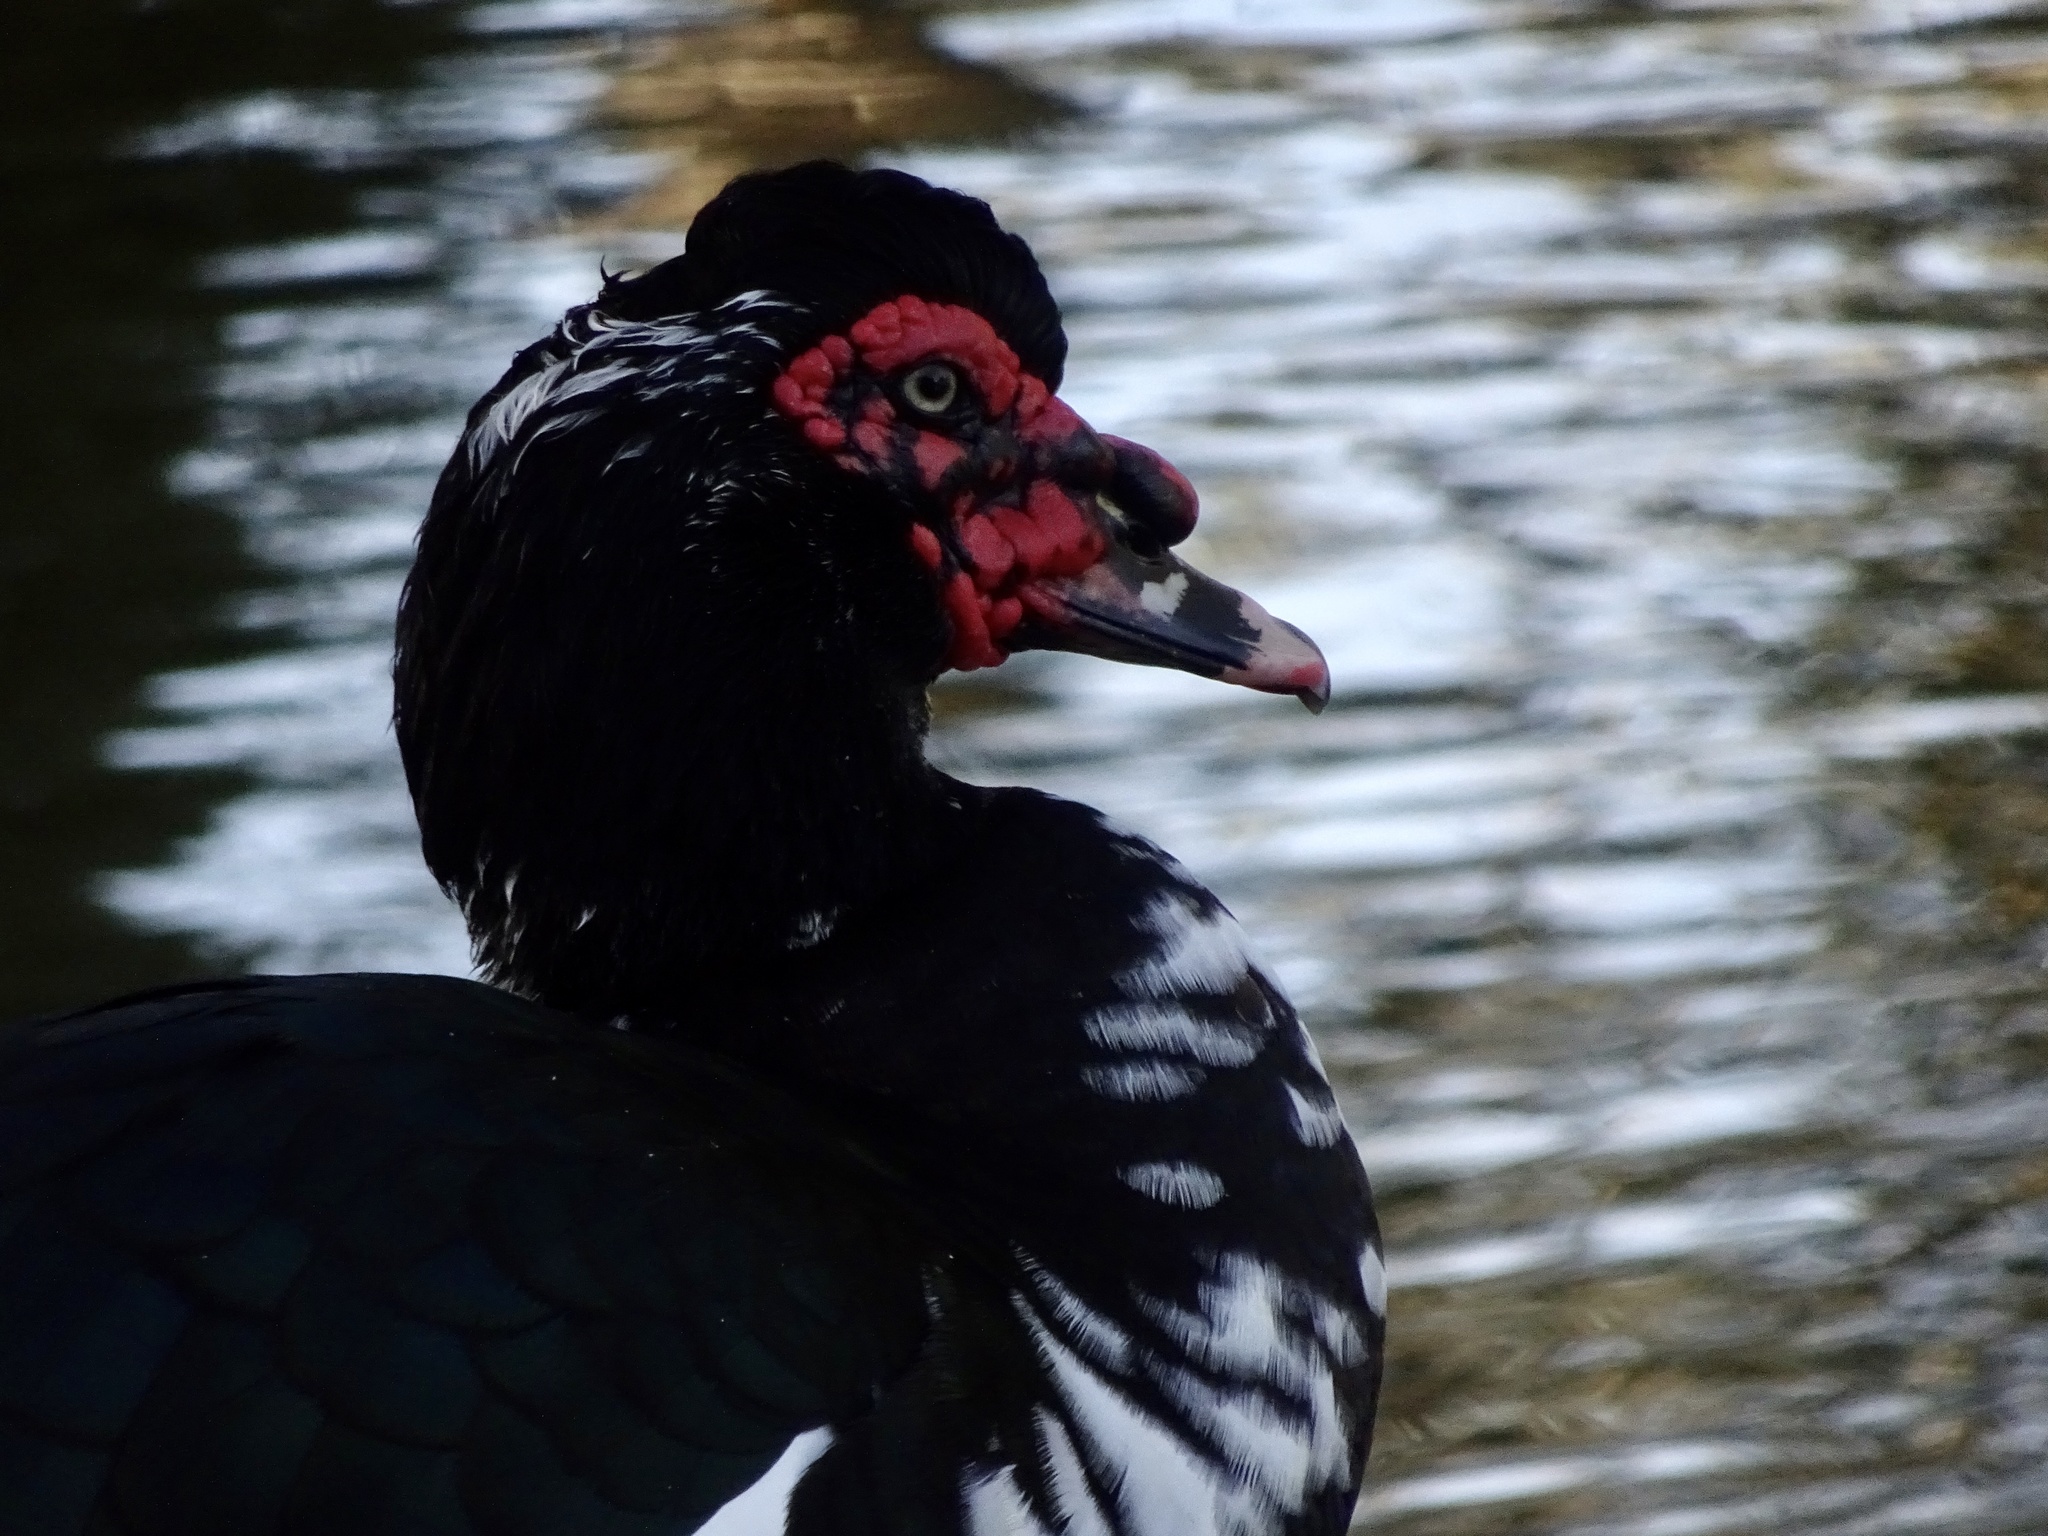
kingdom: Animalia
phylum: Chordata
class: Aves
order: Anseriformes
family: Anatidae
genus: Cairina
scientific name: Cairina moschata
